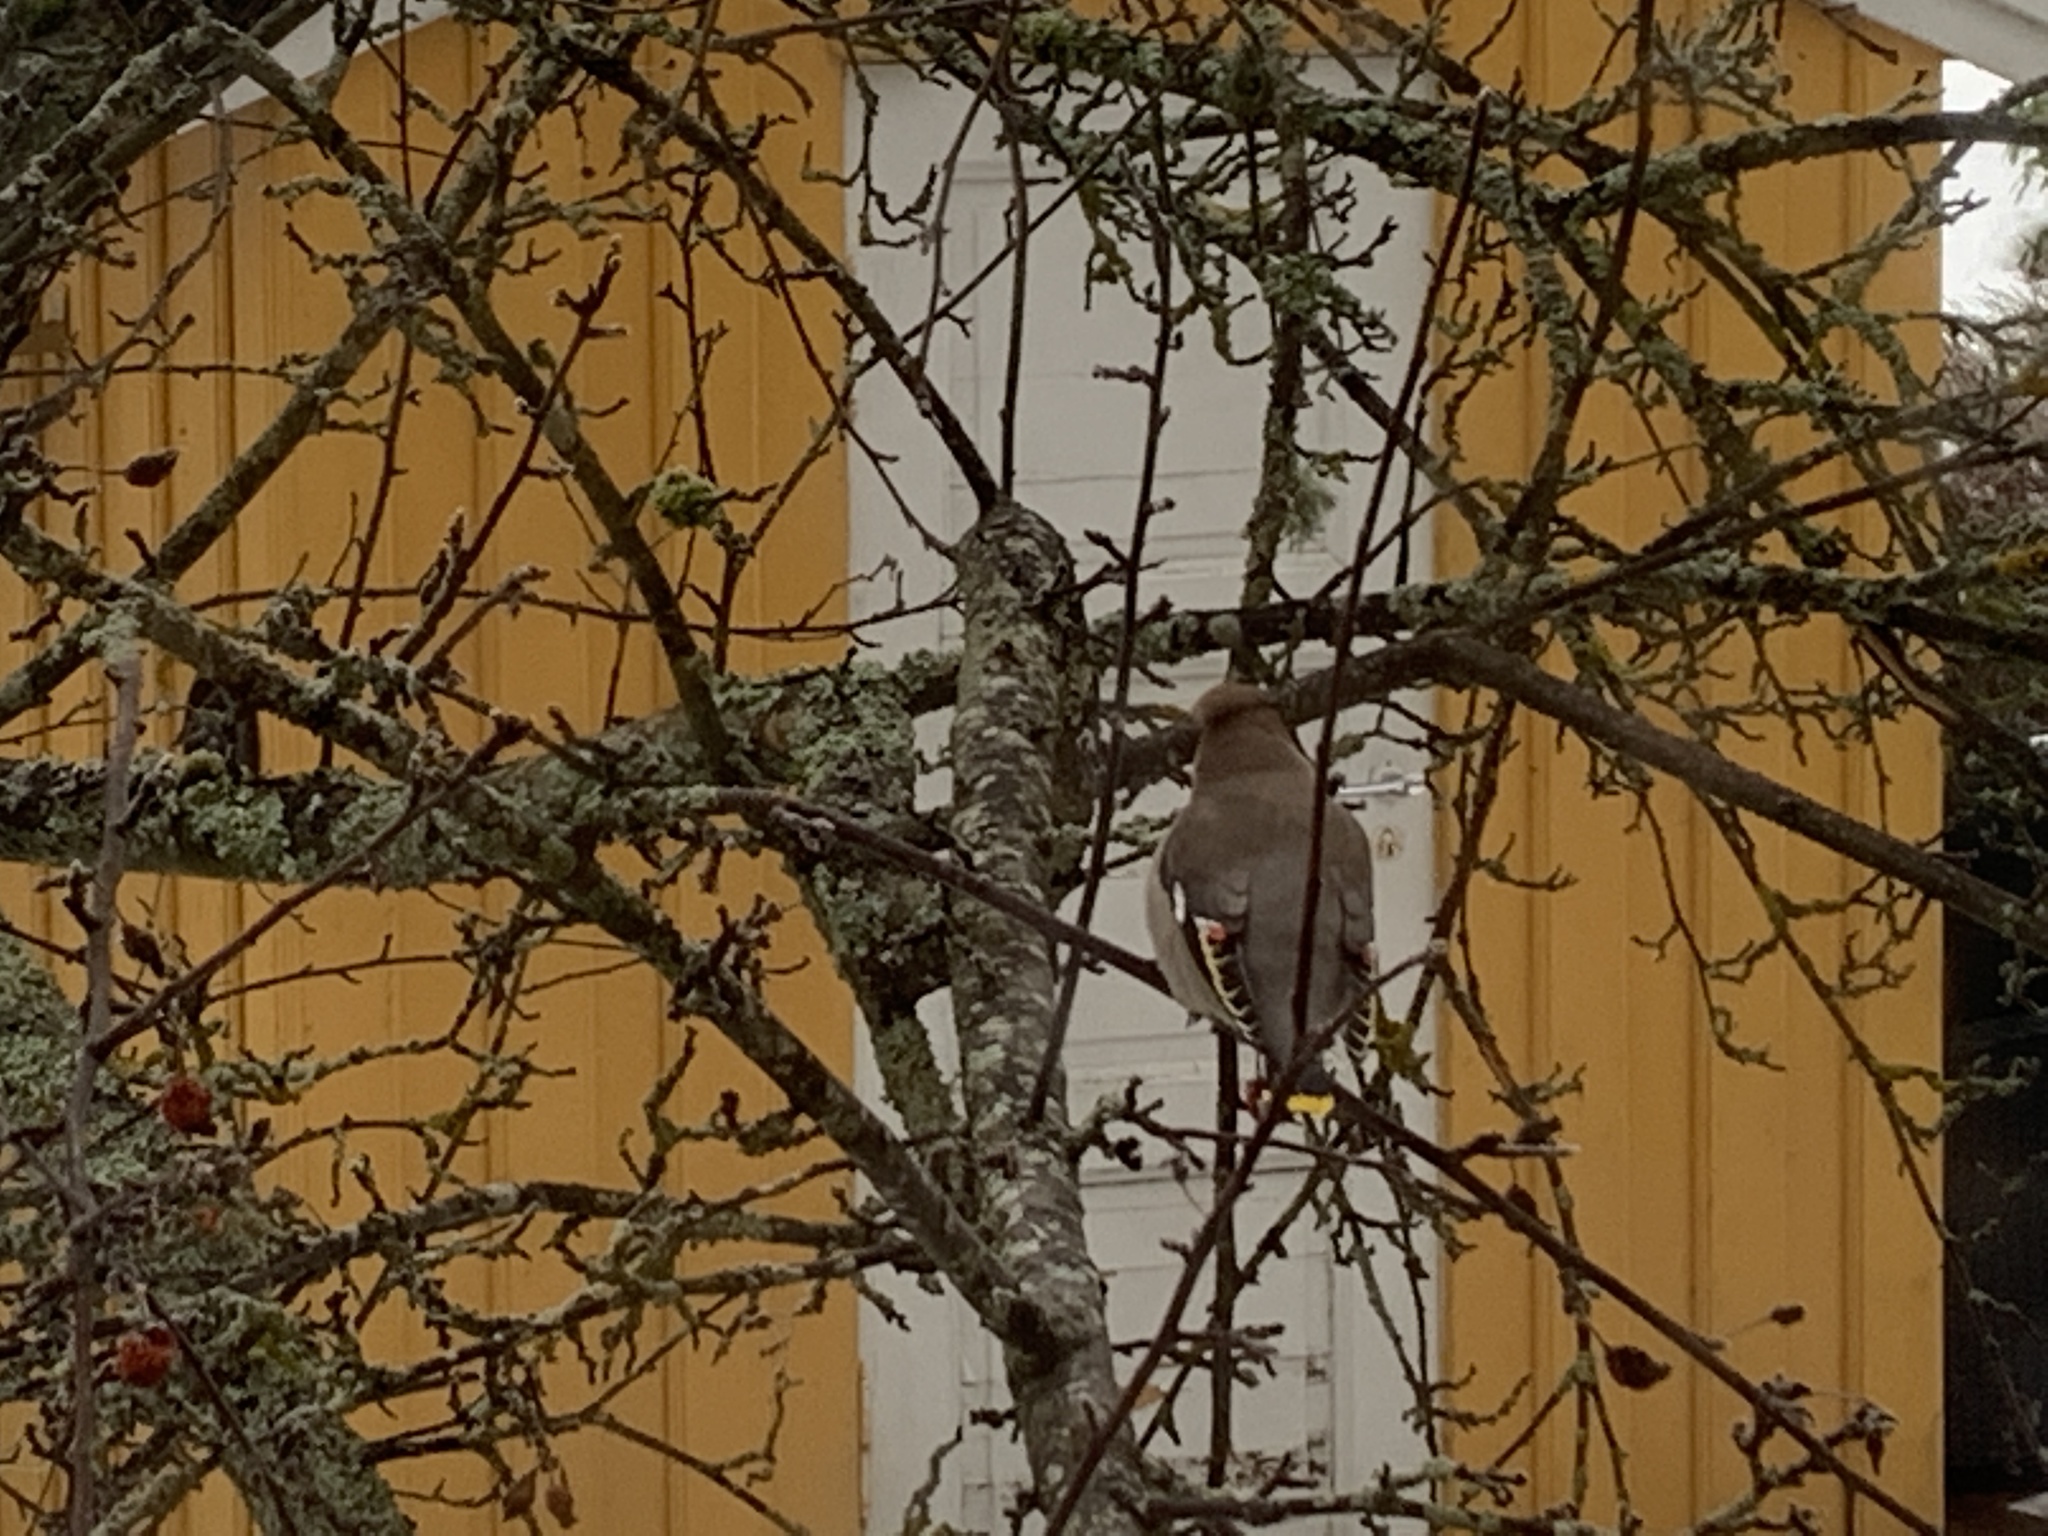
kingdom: Animalia
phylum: Chordata
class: Aves
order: Passeriformes
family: Bombycillidae
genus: Bombycilla
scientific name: Bombycilla garrulus
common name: Bohemian waxwing
